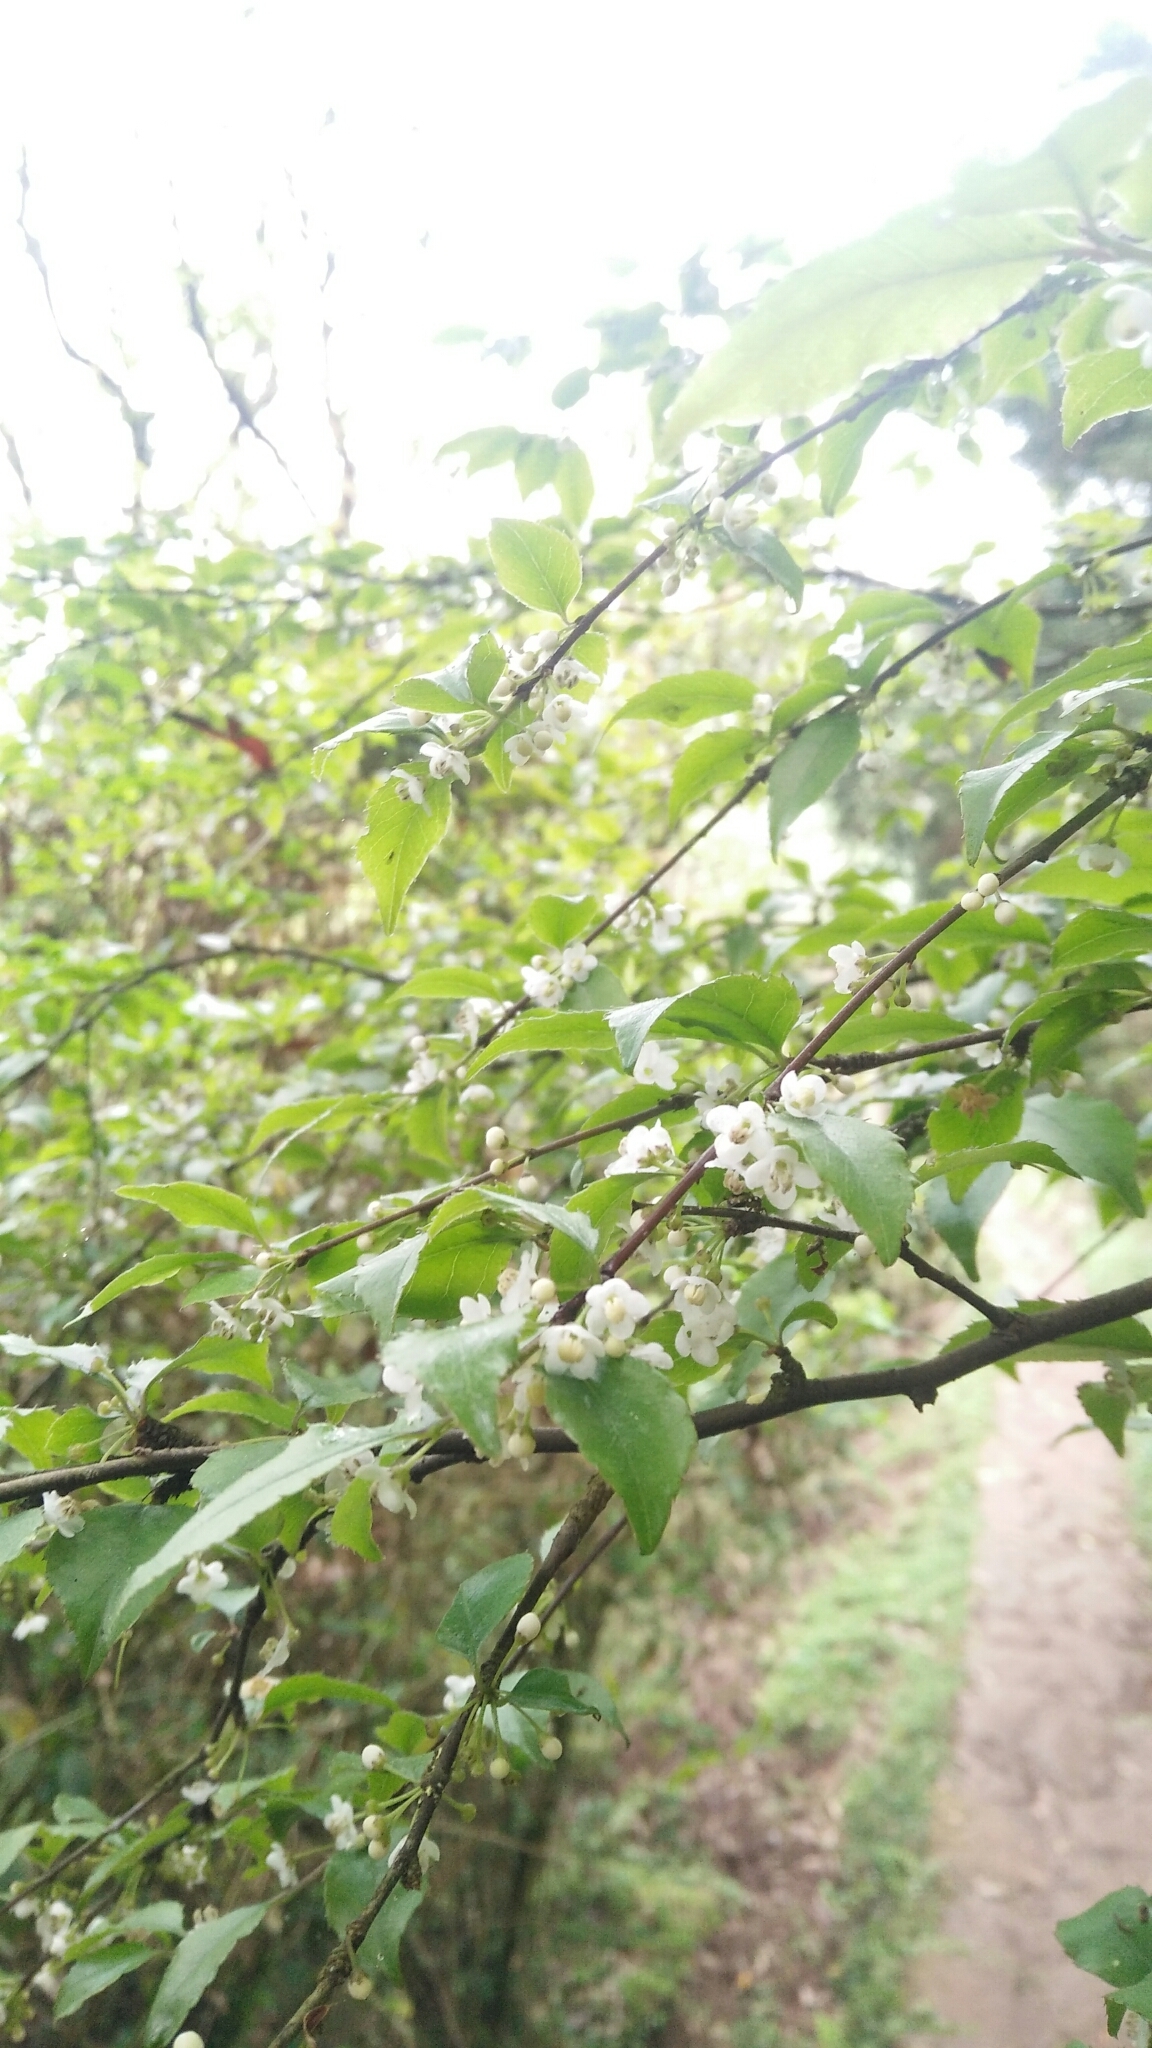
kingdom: Plantae
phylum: Tracheophyta
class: Magnoliopsida
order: Aquifoliales
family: Aquifoliaceae
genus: Ilex
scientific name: Ilex asprella
